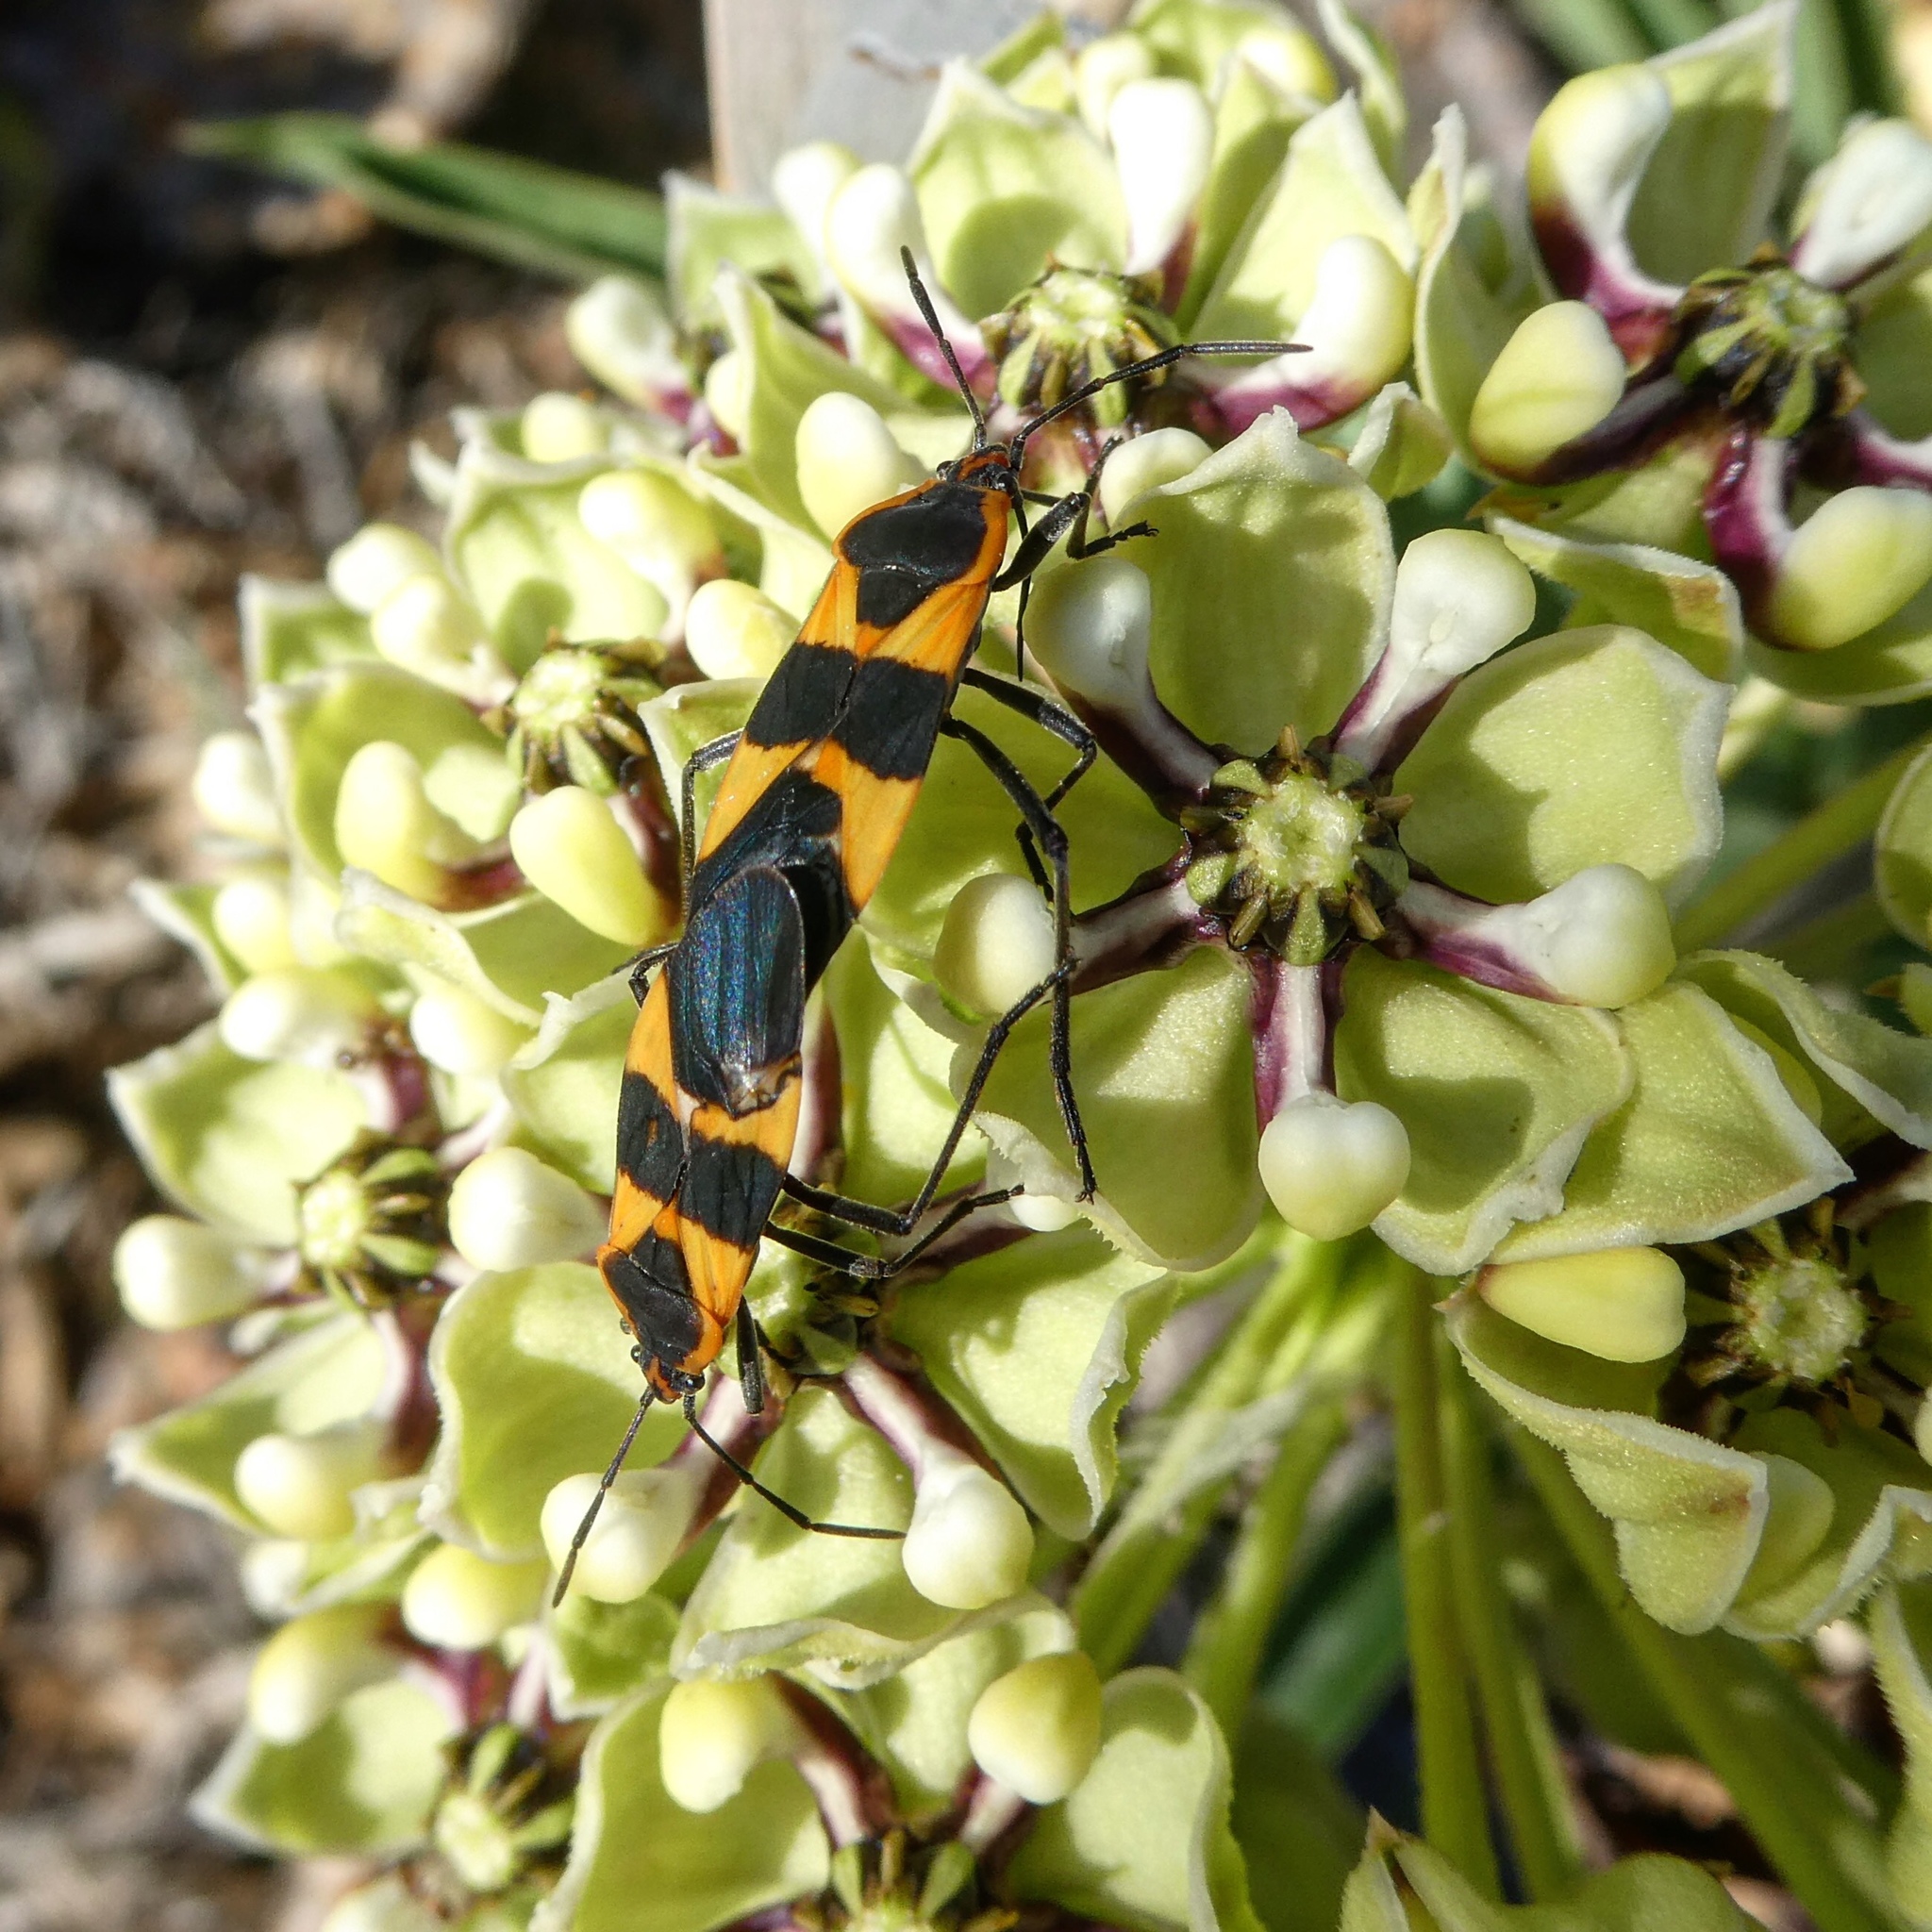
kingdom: Animalia
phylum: Arthropoda
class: Insecta
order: Hemiptera
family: Lygaeidae
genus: Oncopeltus
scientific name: Oncopeltus fasciatus
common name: Large milkweed bug
